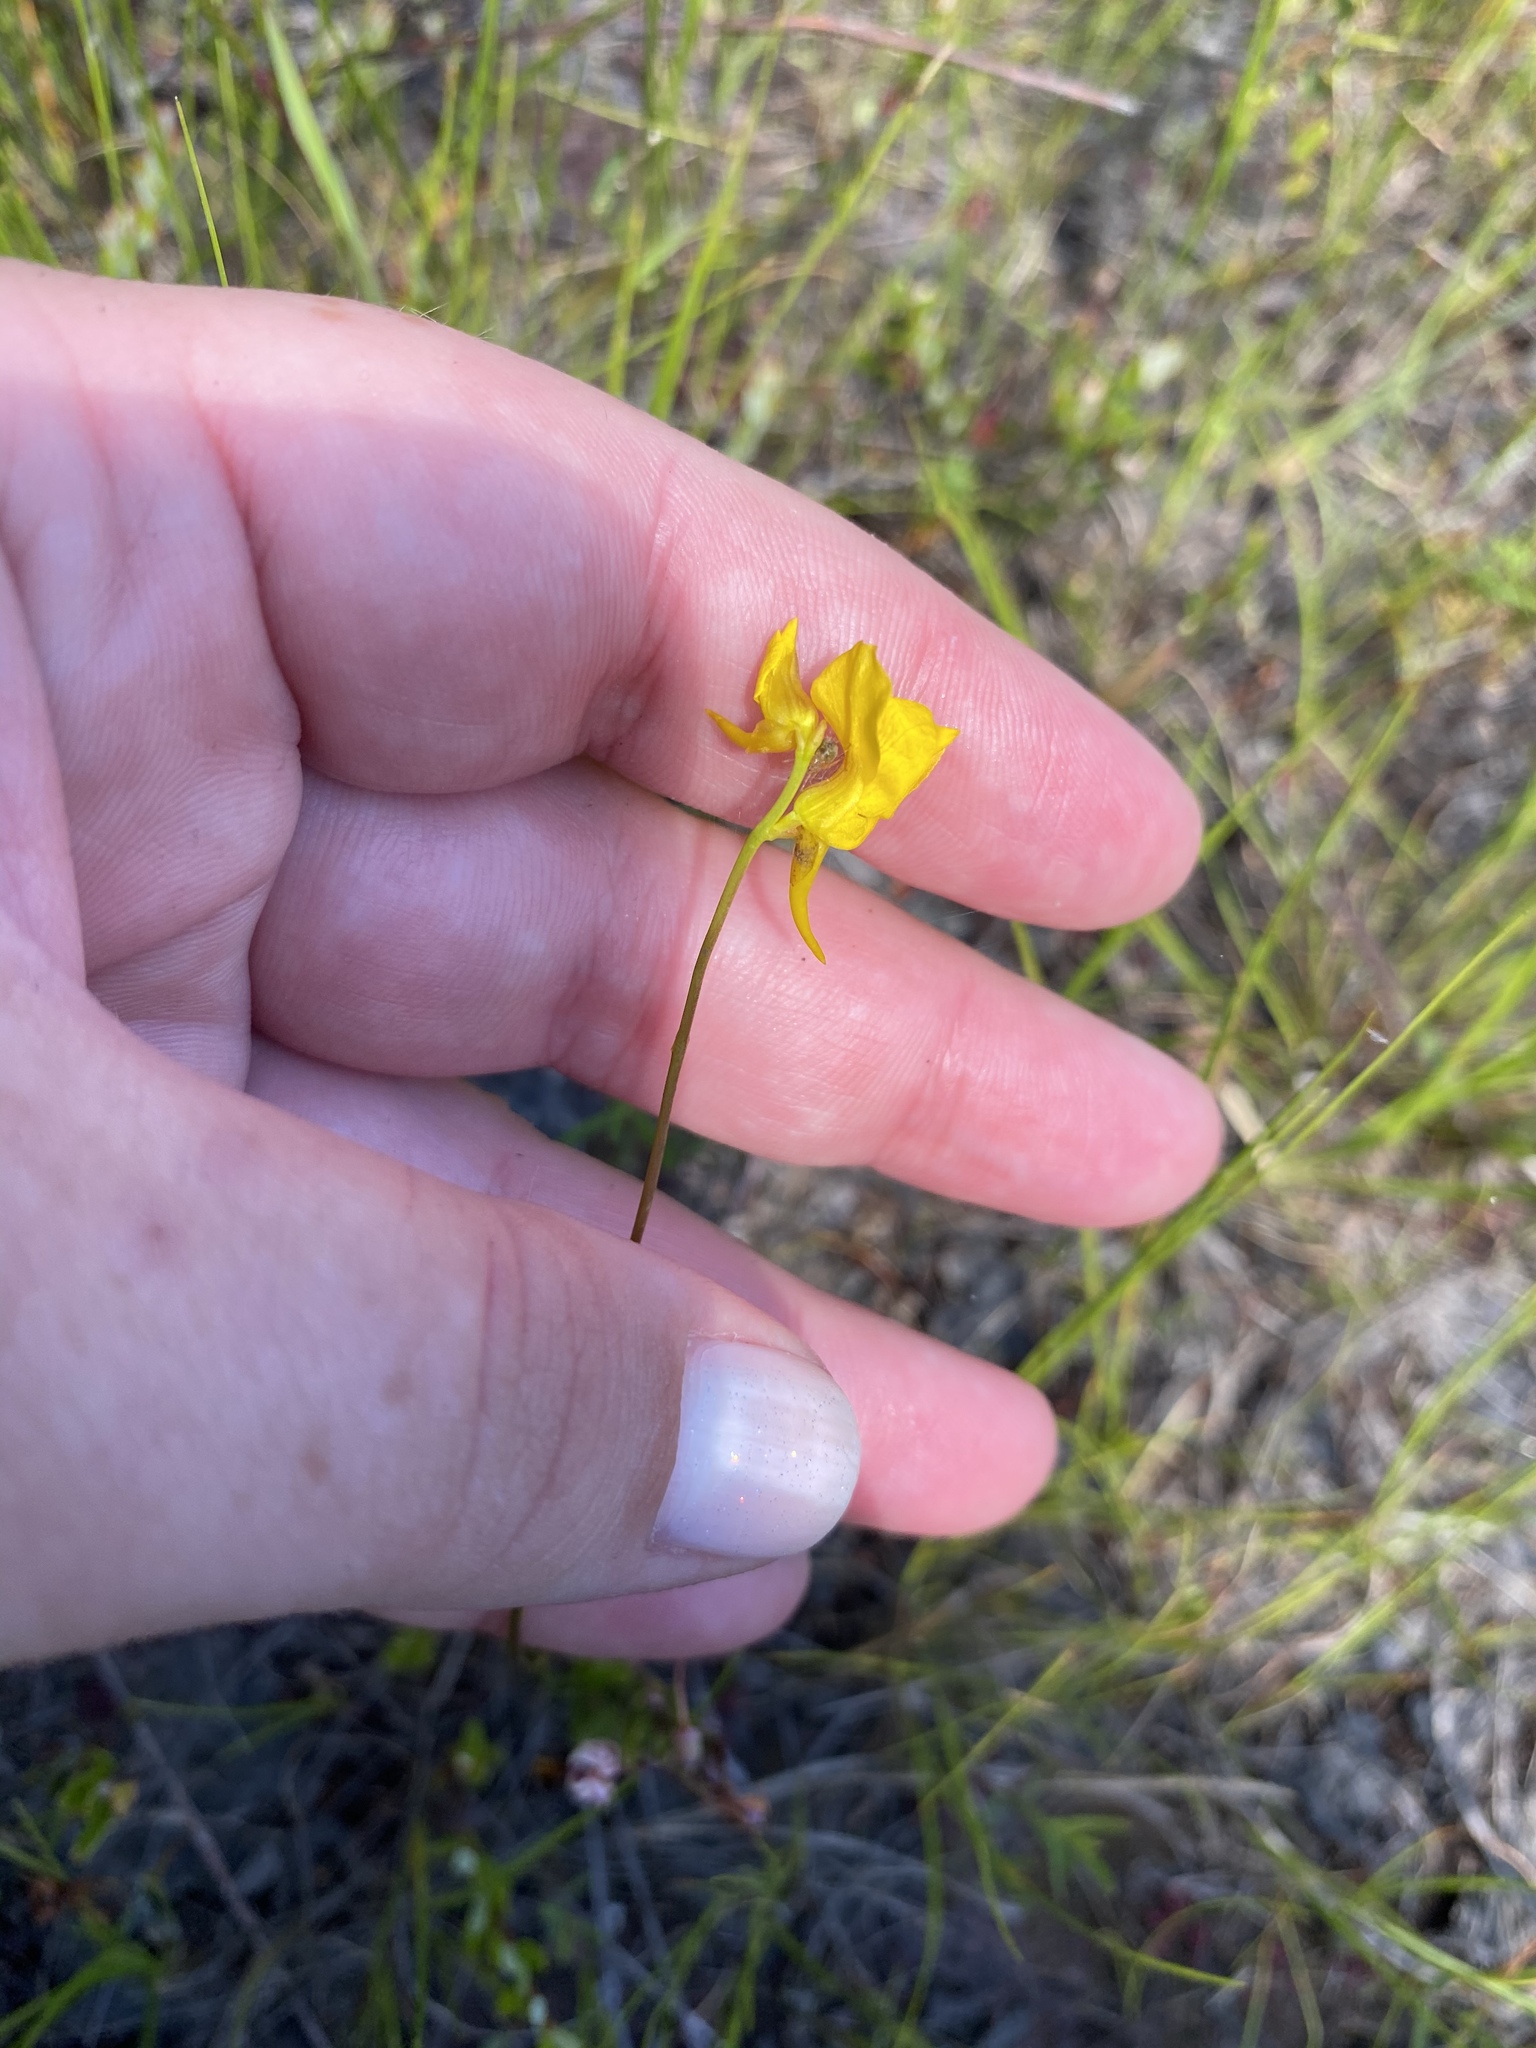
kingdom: Plantae
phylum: Tracheophyta
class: Magnoliopsida
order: Lamiales
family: Lentibulariaceae
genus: Utricularia
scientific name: Utricularia cornuta
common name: Horned bladderwort
